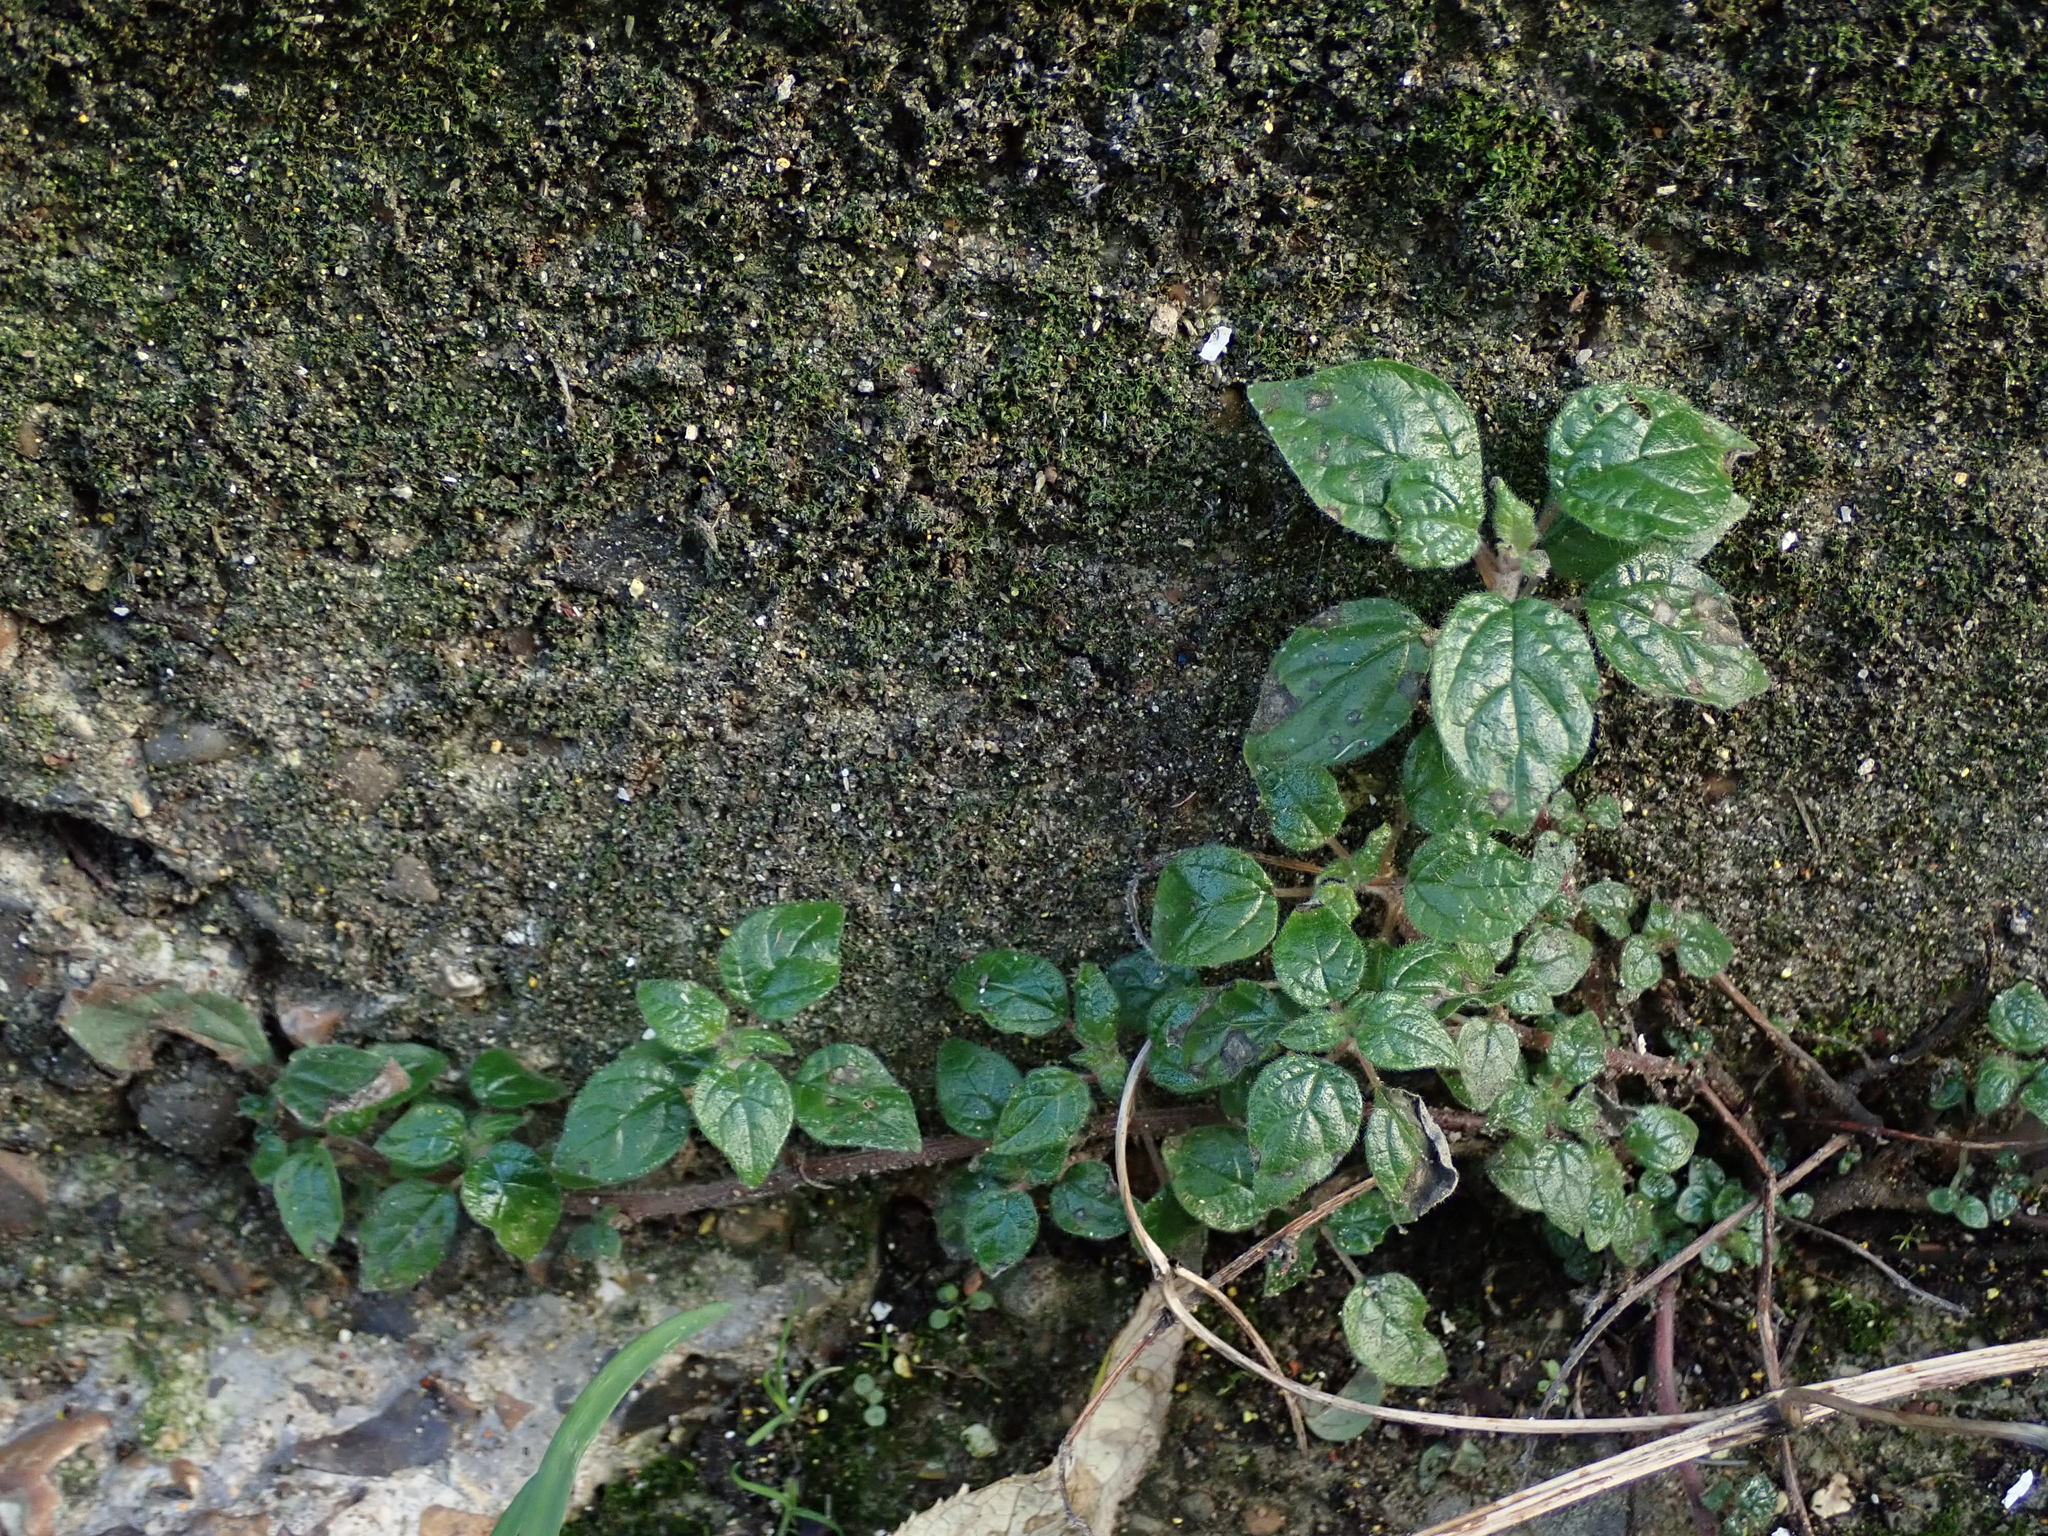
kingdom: Plantae
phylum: Tracheophyta
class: Magnoliopsida
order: Rosales
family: Urticaceae
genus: Parietaria
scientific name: Parietaria judaica
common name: Pellitory-of-the-wall
